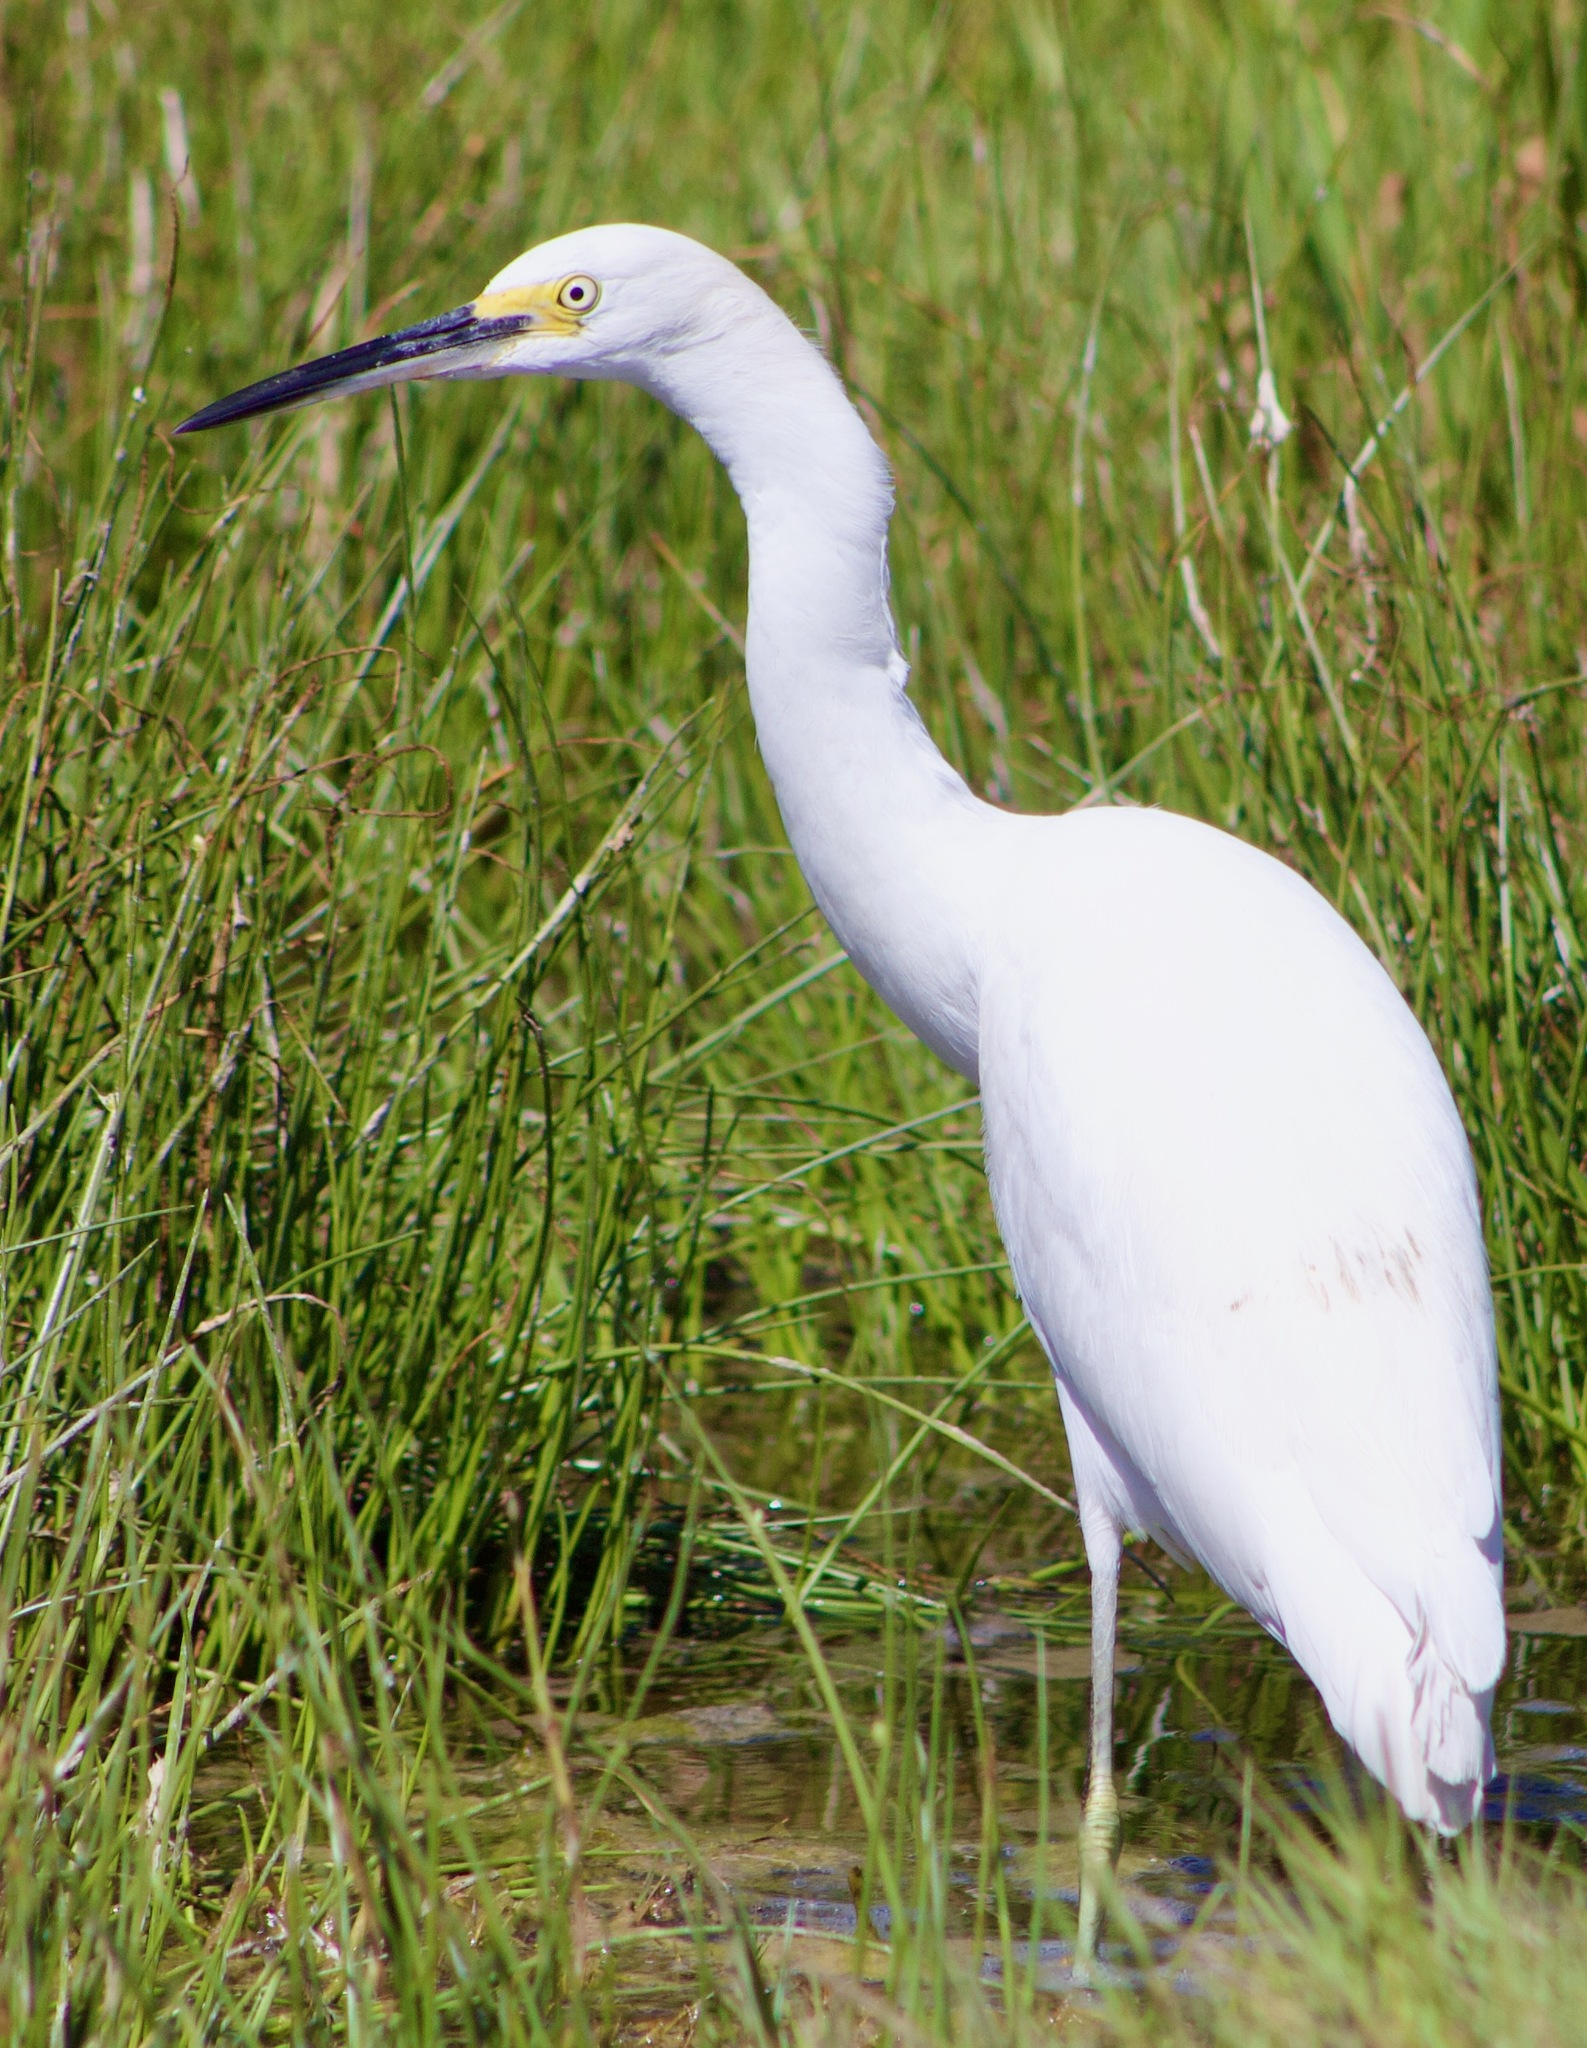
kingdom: Animalia
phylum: Chordata
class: Aves
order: Pelecaniformes
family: Ardeidae
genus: Egretta
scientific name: Egretta thula
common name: Snowy egret
